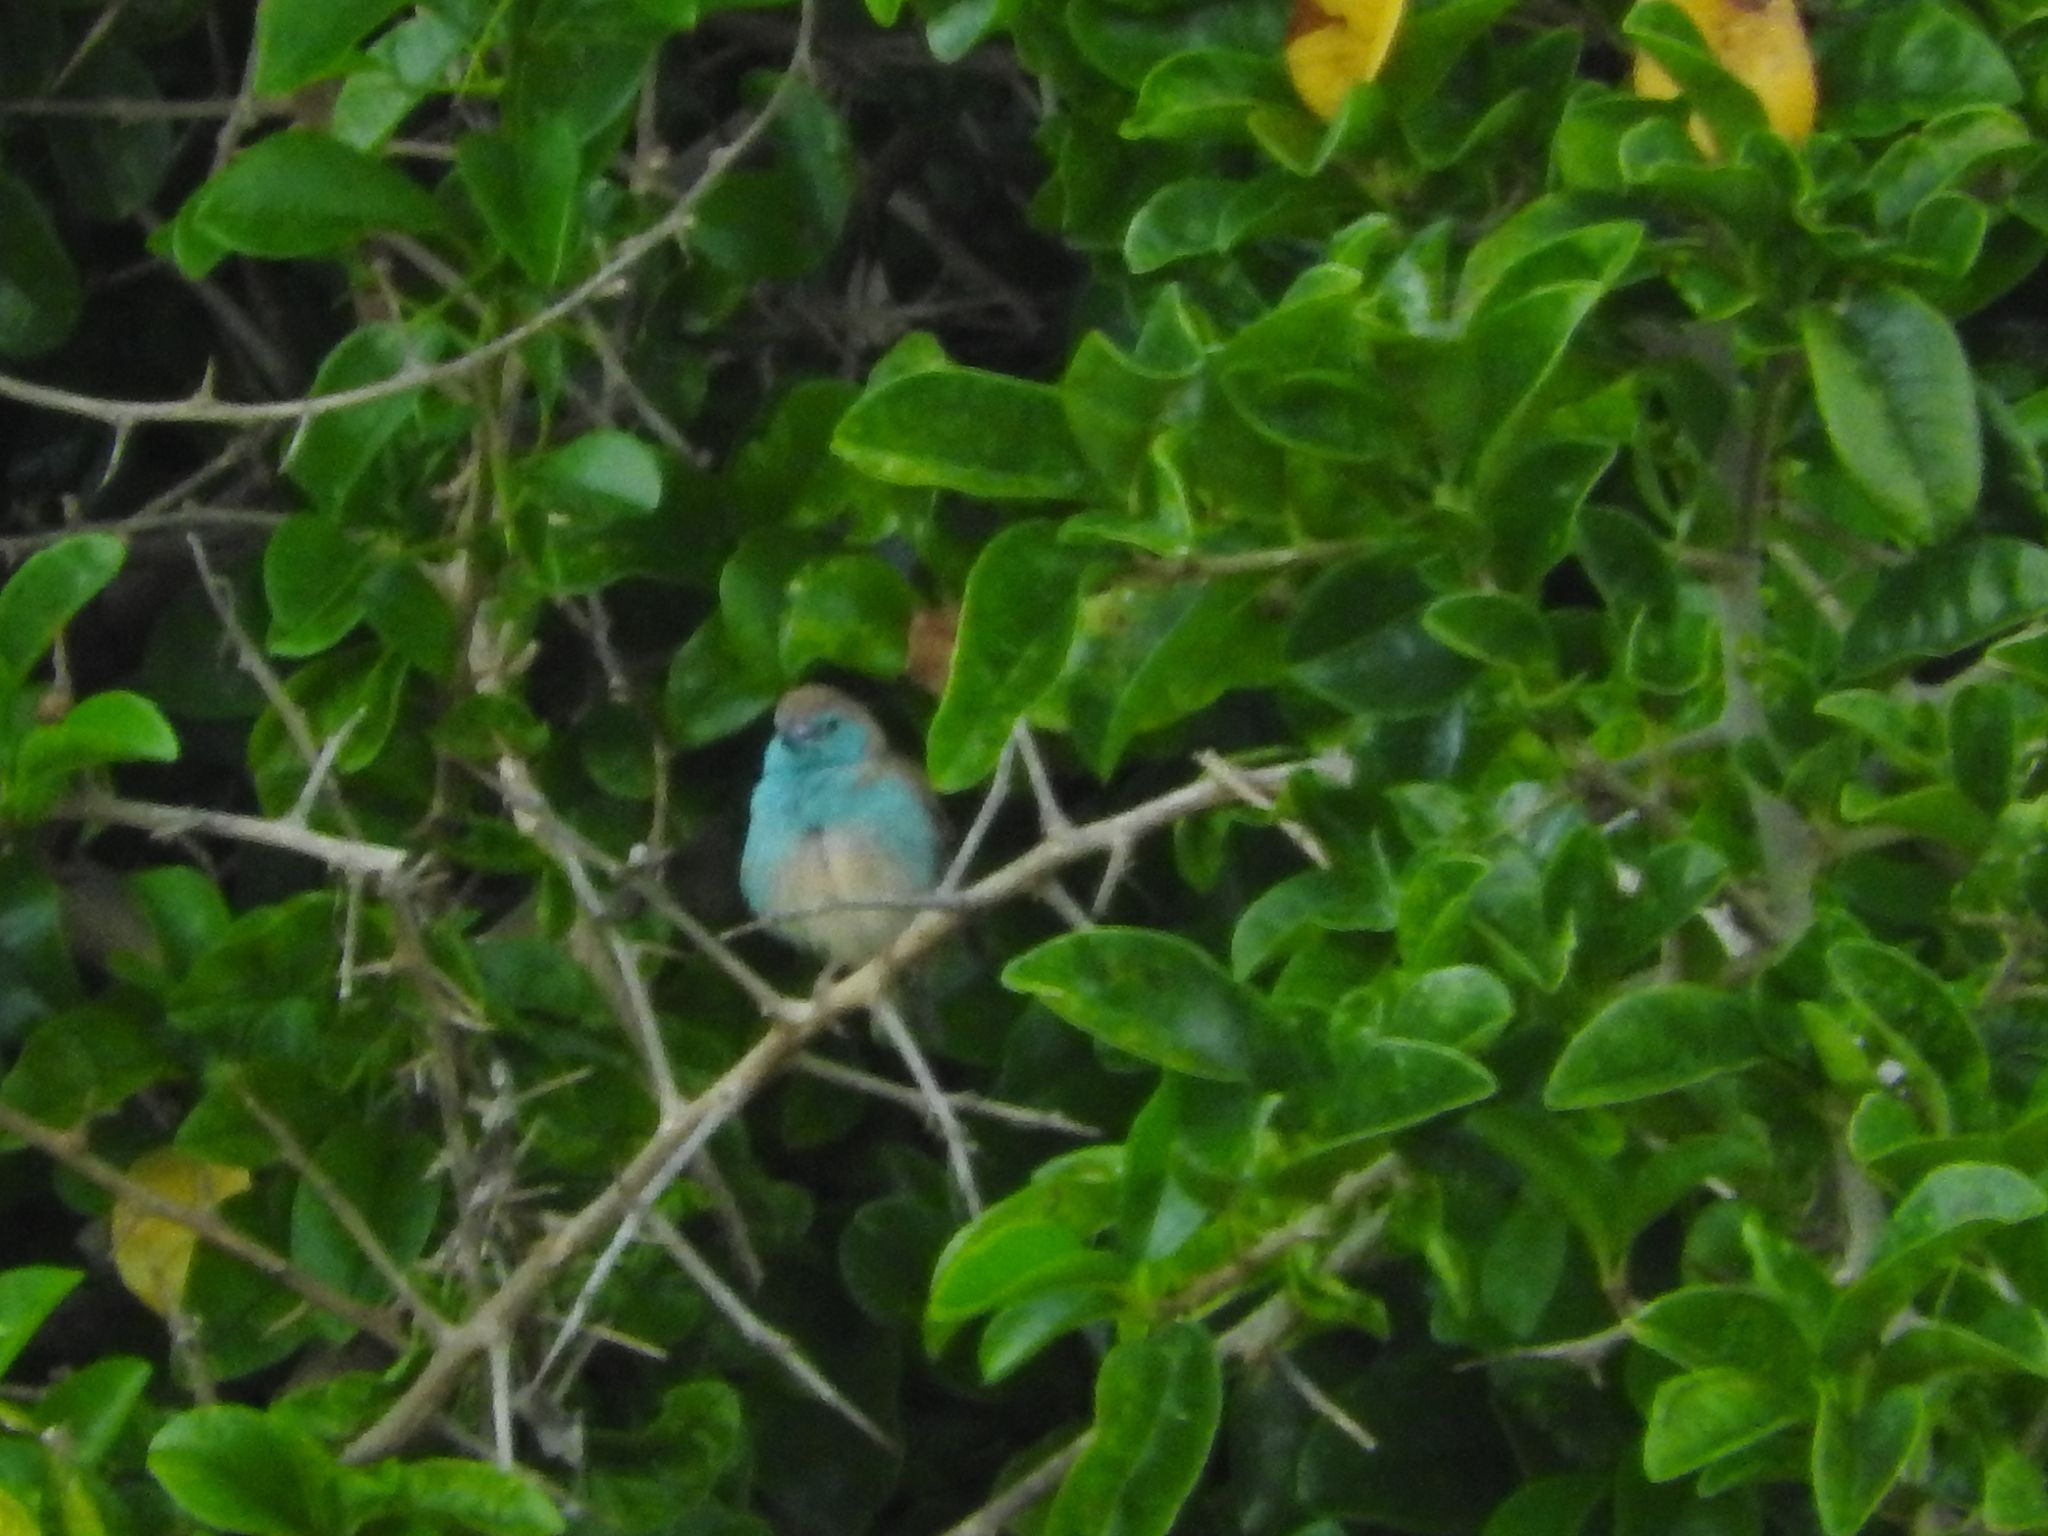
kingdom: Animalia
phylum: Chordata
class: Aves
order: Passeriformes
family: Estrildidae
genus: Uraeginthus
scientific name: Uraeginthus angolensis
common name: Blue waxbill
